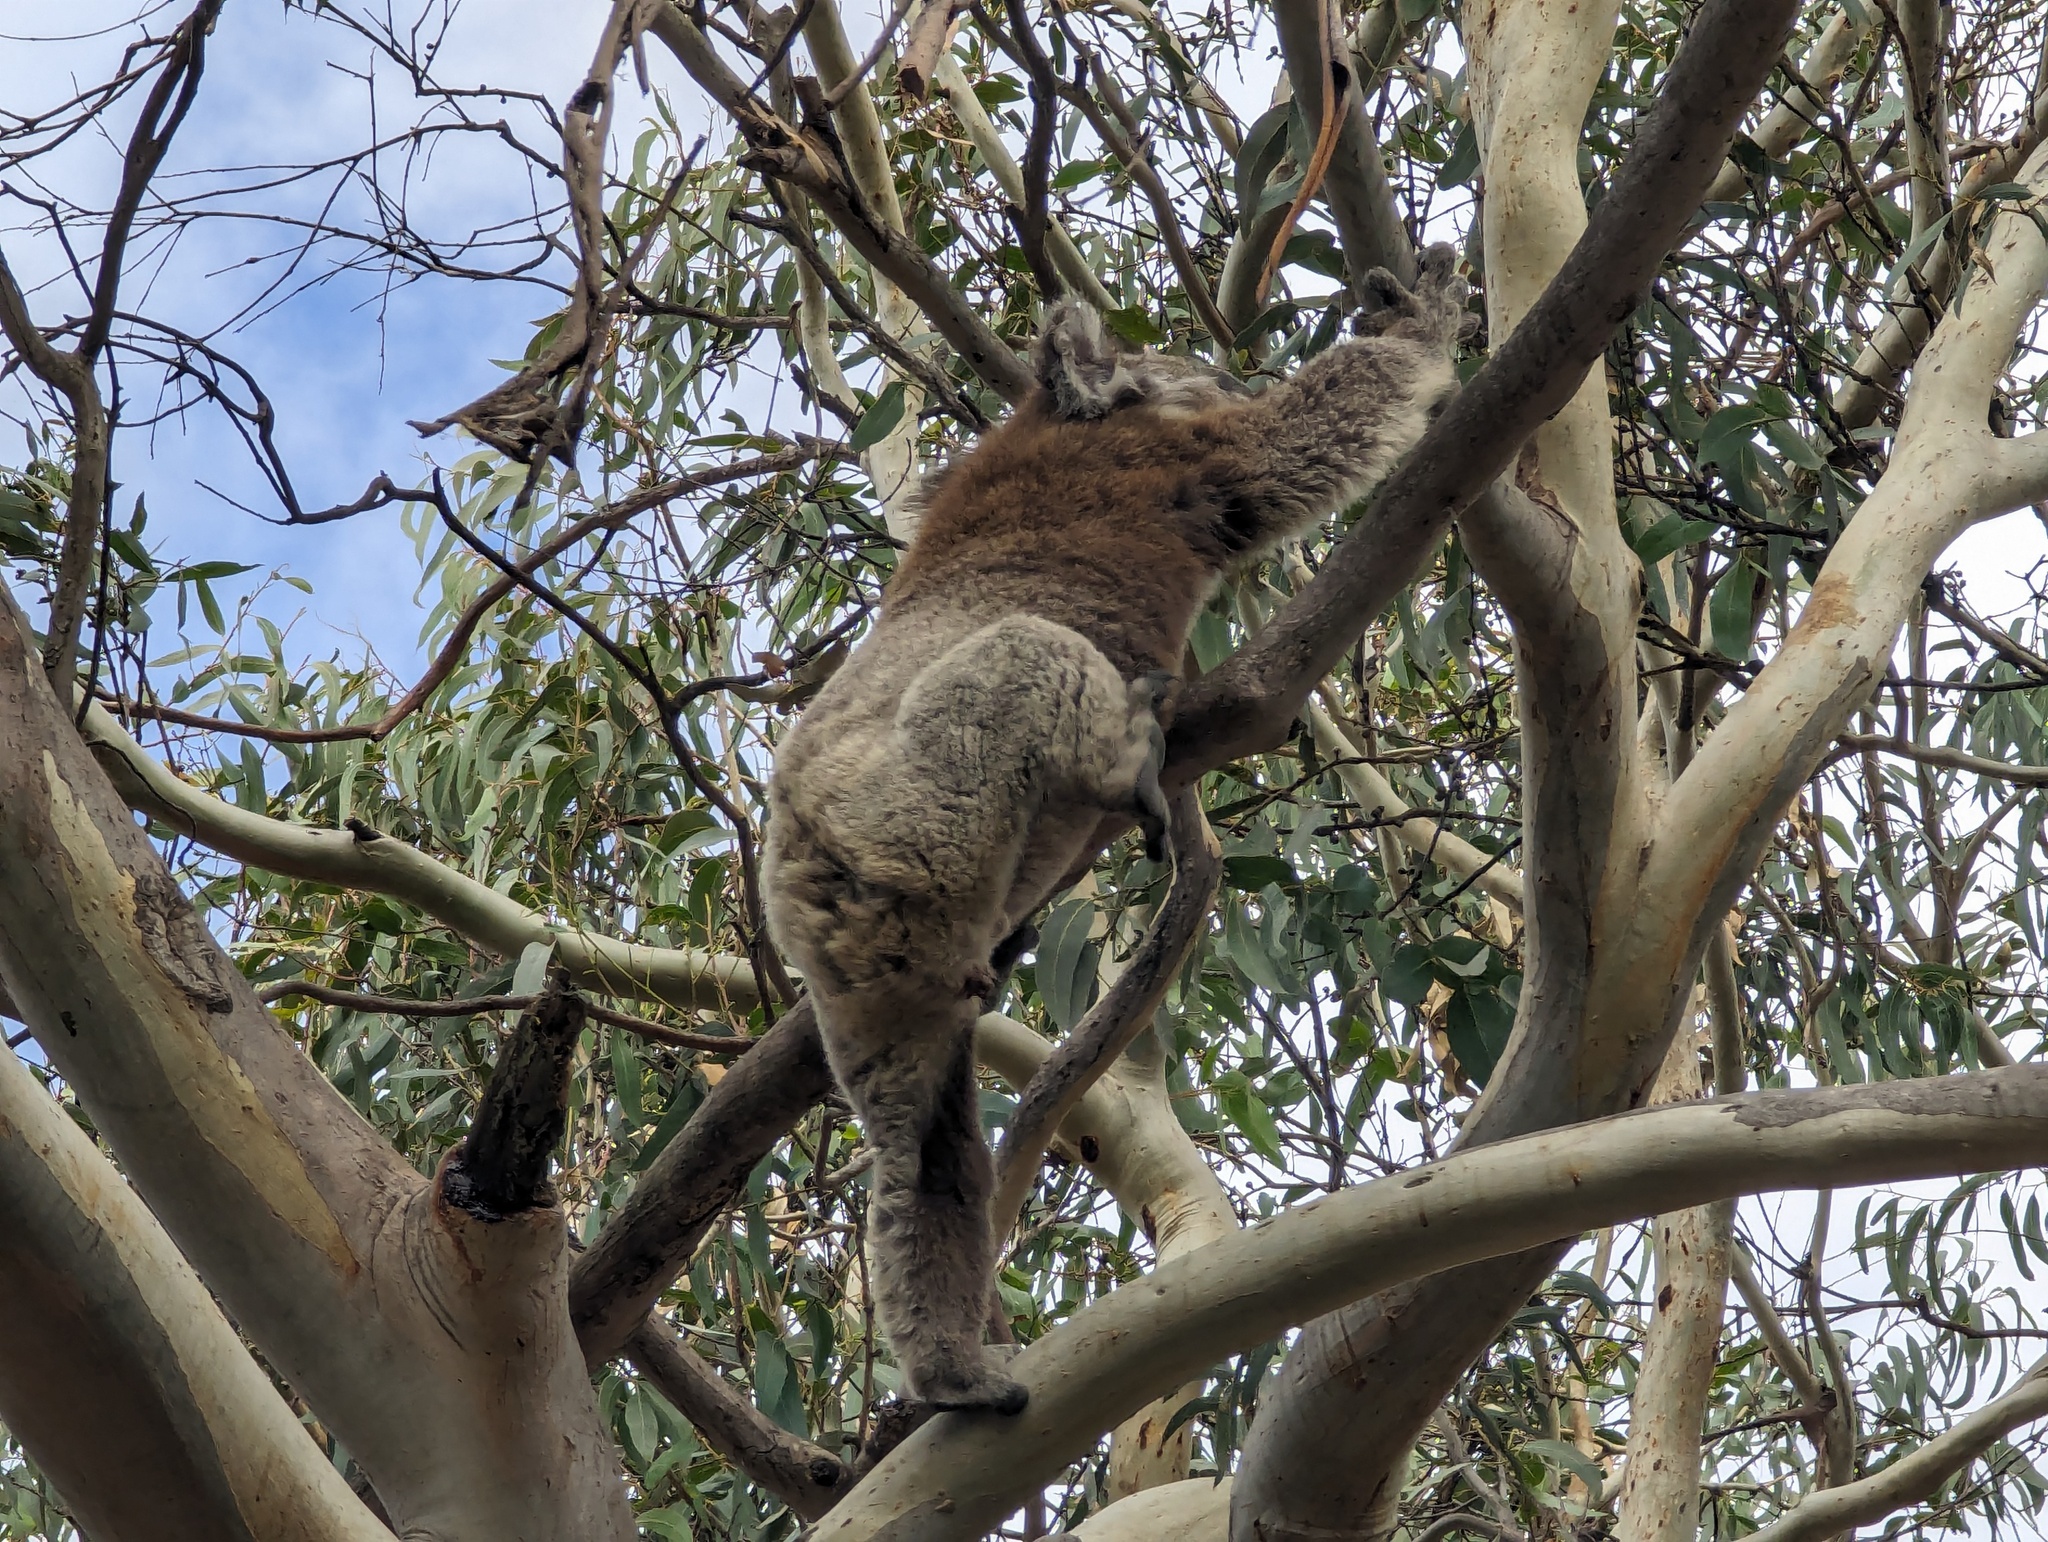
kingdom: Animalia
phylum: Chordata
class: Mammalia
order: Diprotodontia
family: Phascolarctidae
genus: Phascolarctos
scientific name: Phascolarctos cinereus
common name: Koala
